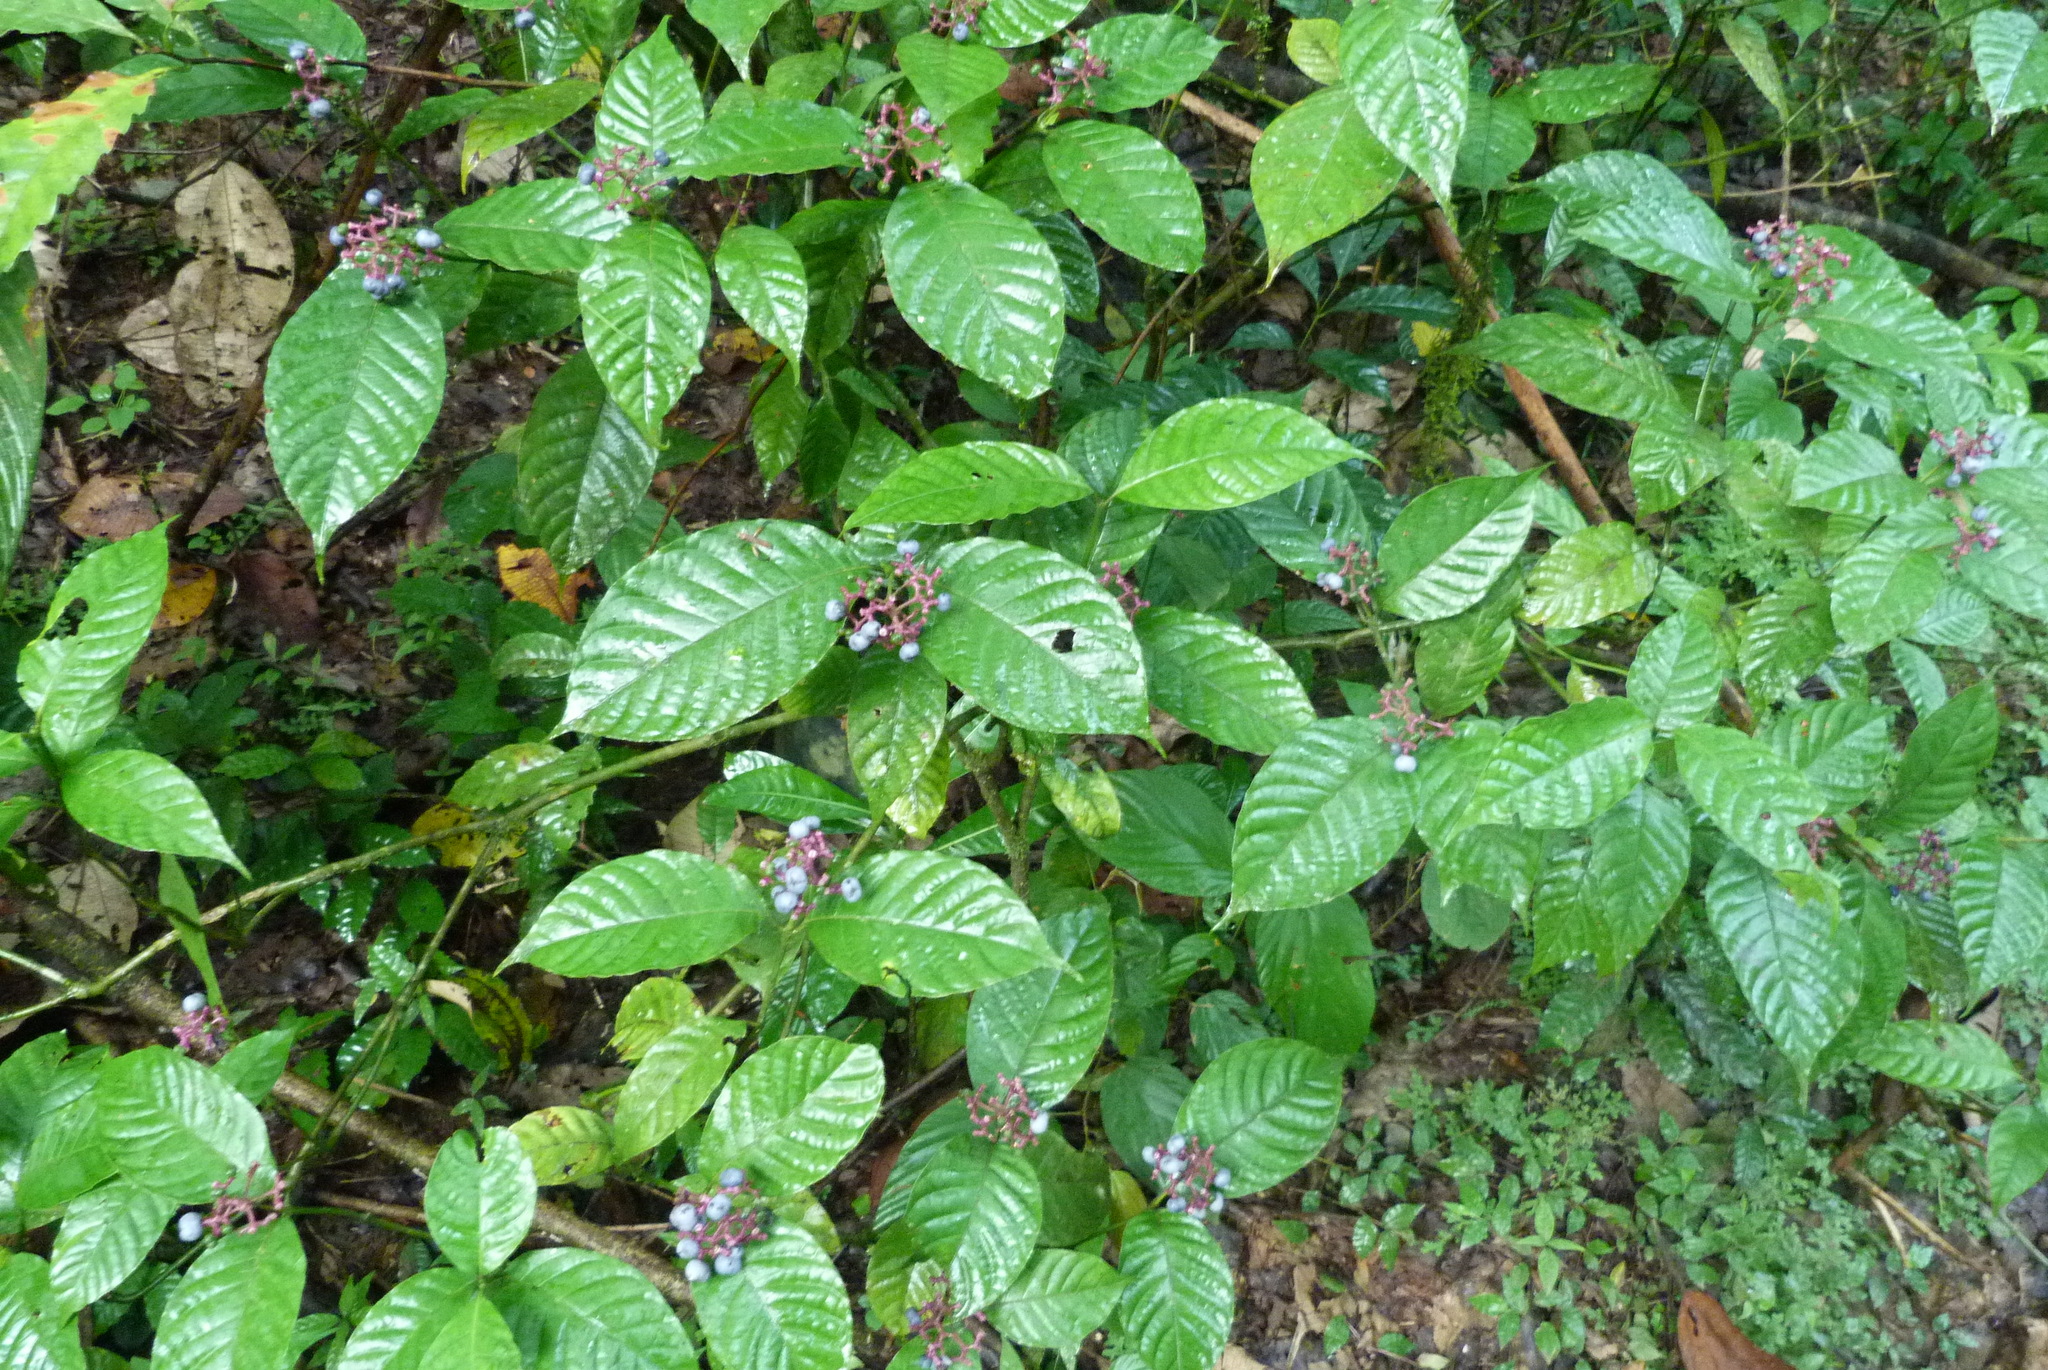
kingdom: Plantae
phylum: Tracheophyta
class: Magnoliopsida
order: Gentianales
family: Rubiaceae
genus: Palicourea
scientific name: Palicourea acuminata
